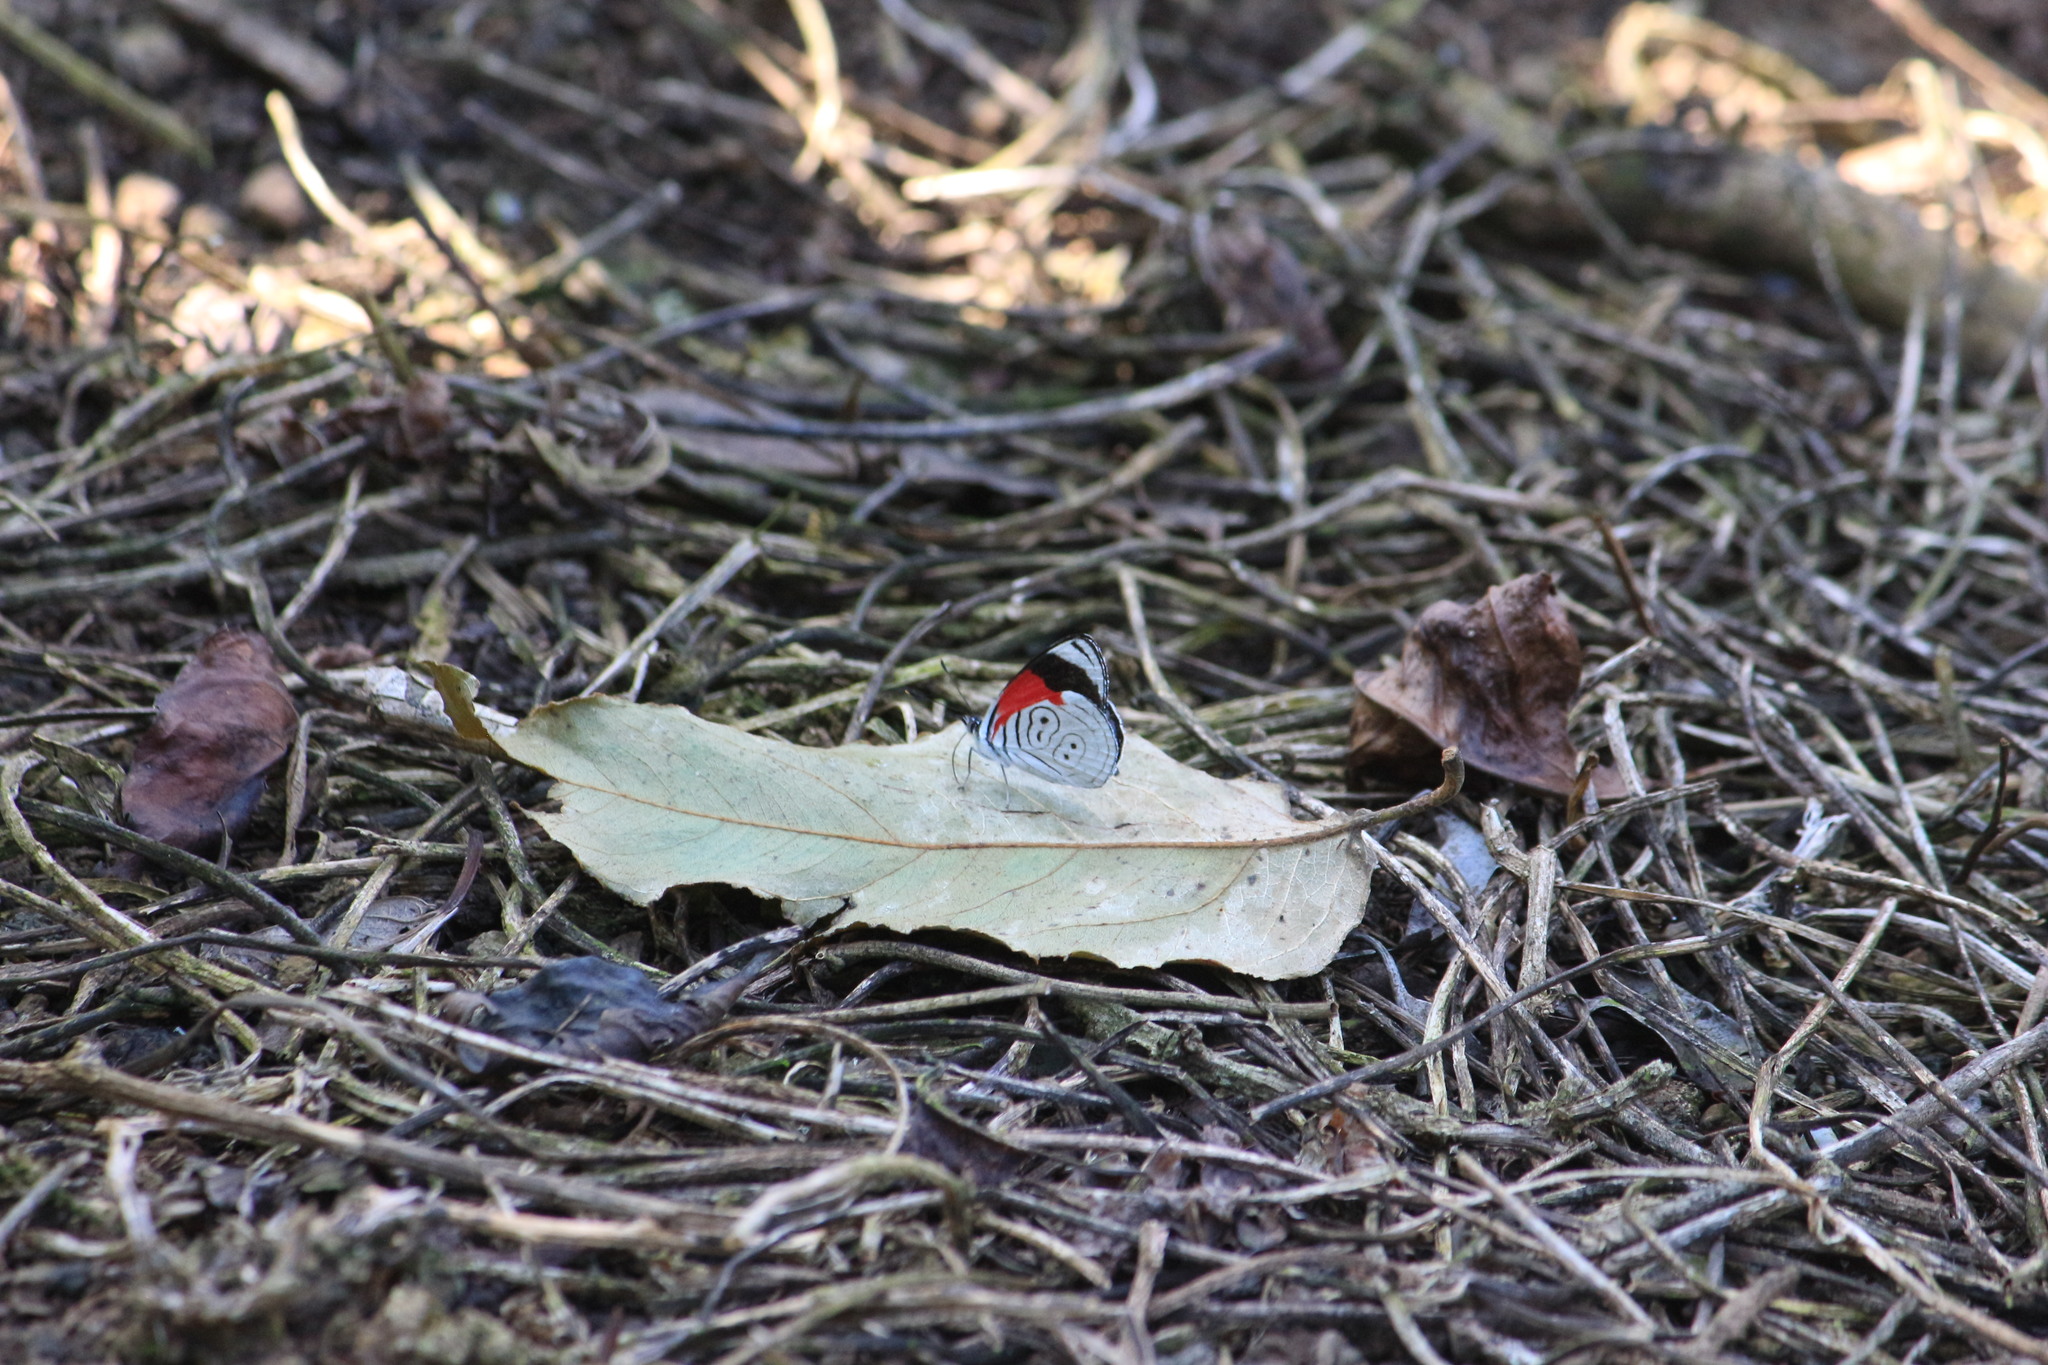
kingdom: Animalia
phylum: Arthropoda
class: Insecta
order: Lepidoptera
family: Nymphalidae
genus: Diaethria
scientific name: Diaethria anna
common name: Anna’s eighty-eight
